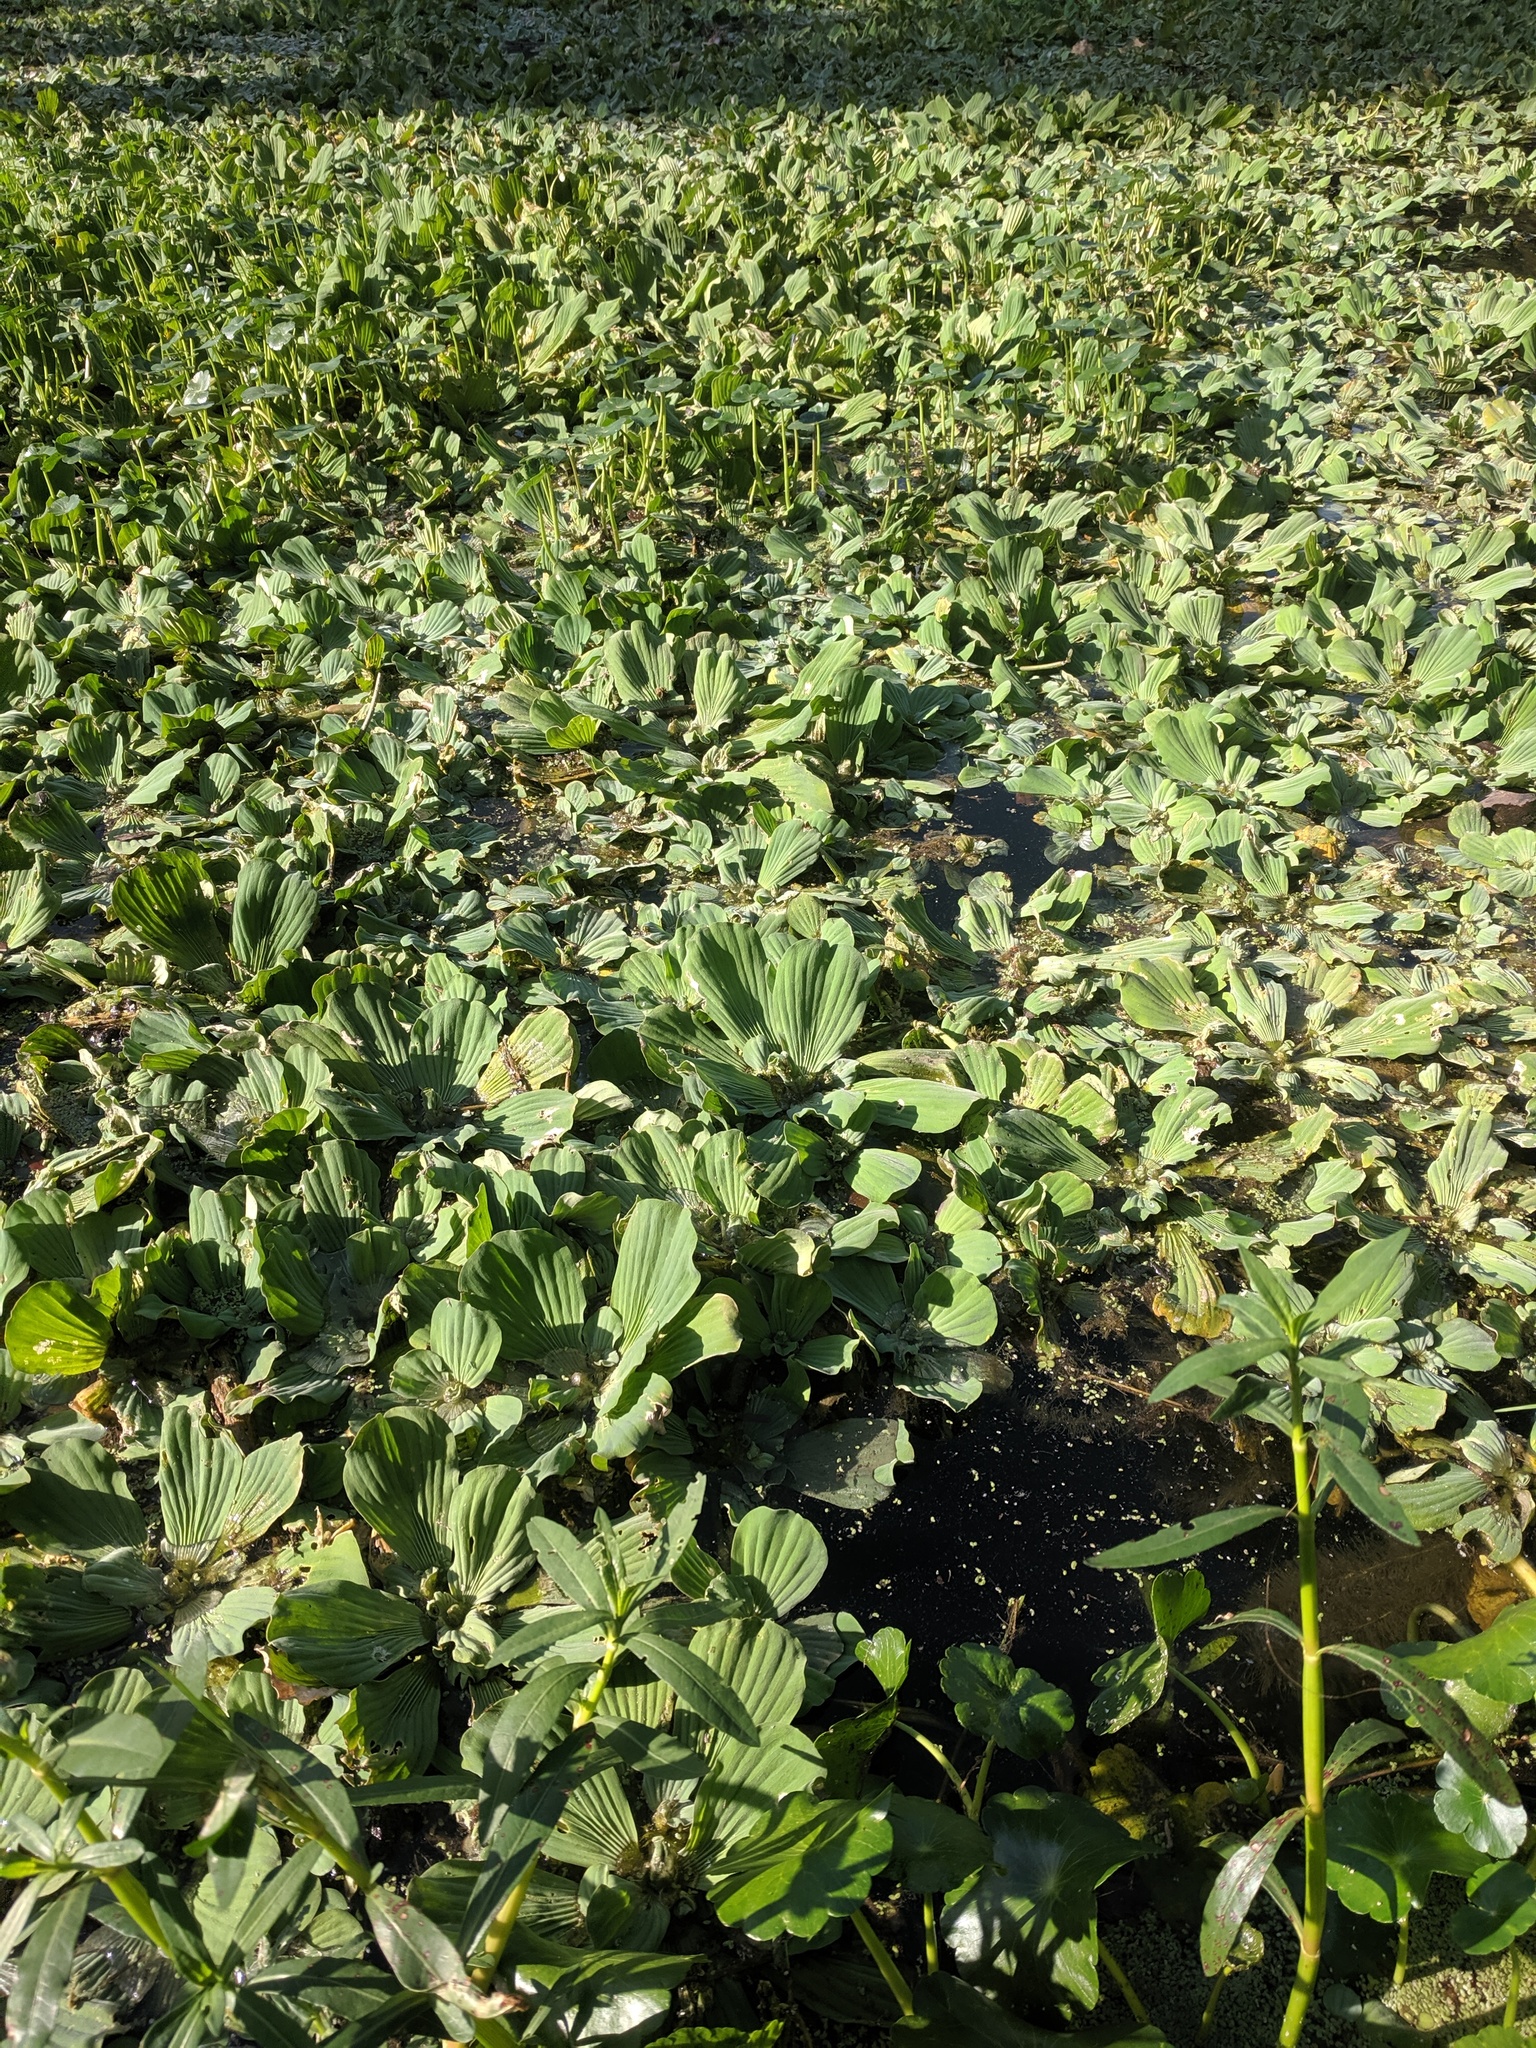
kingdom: Plantae
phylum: Tracheophyta
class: Liliopsida
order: Alismatales
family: Araceae
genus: Pistia
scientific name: Pistia stratiotes
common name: Water lettuce
